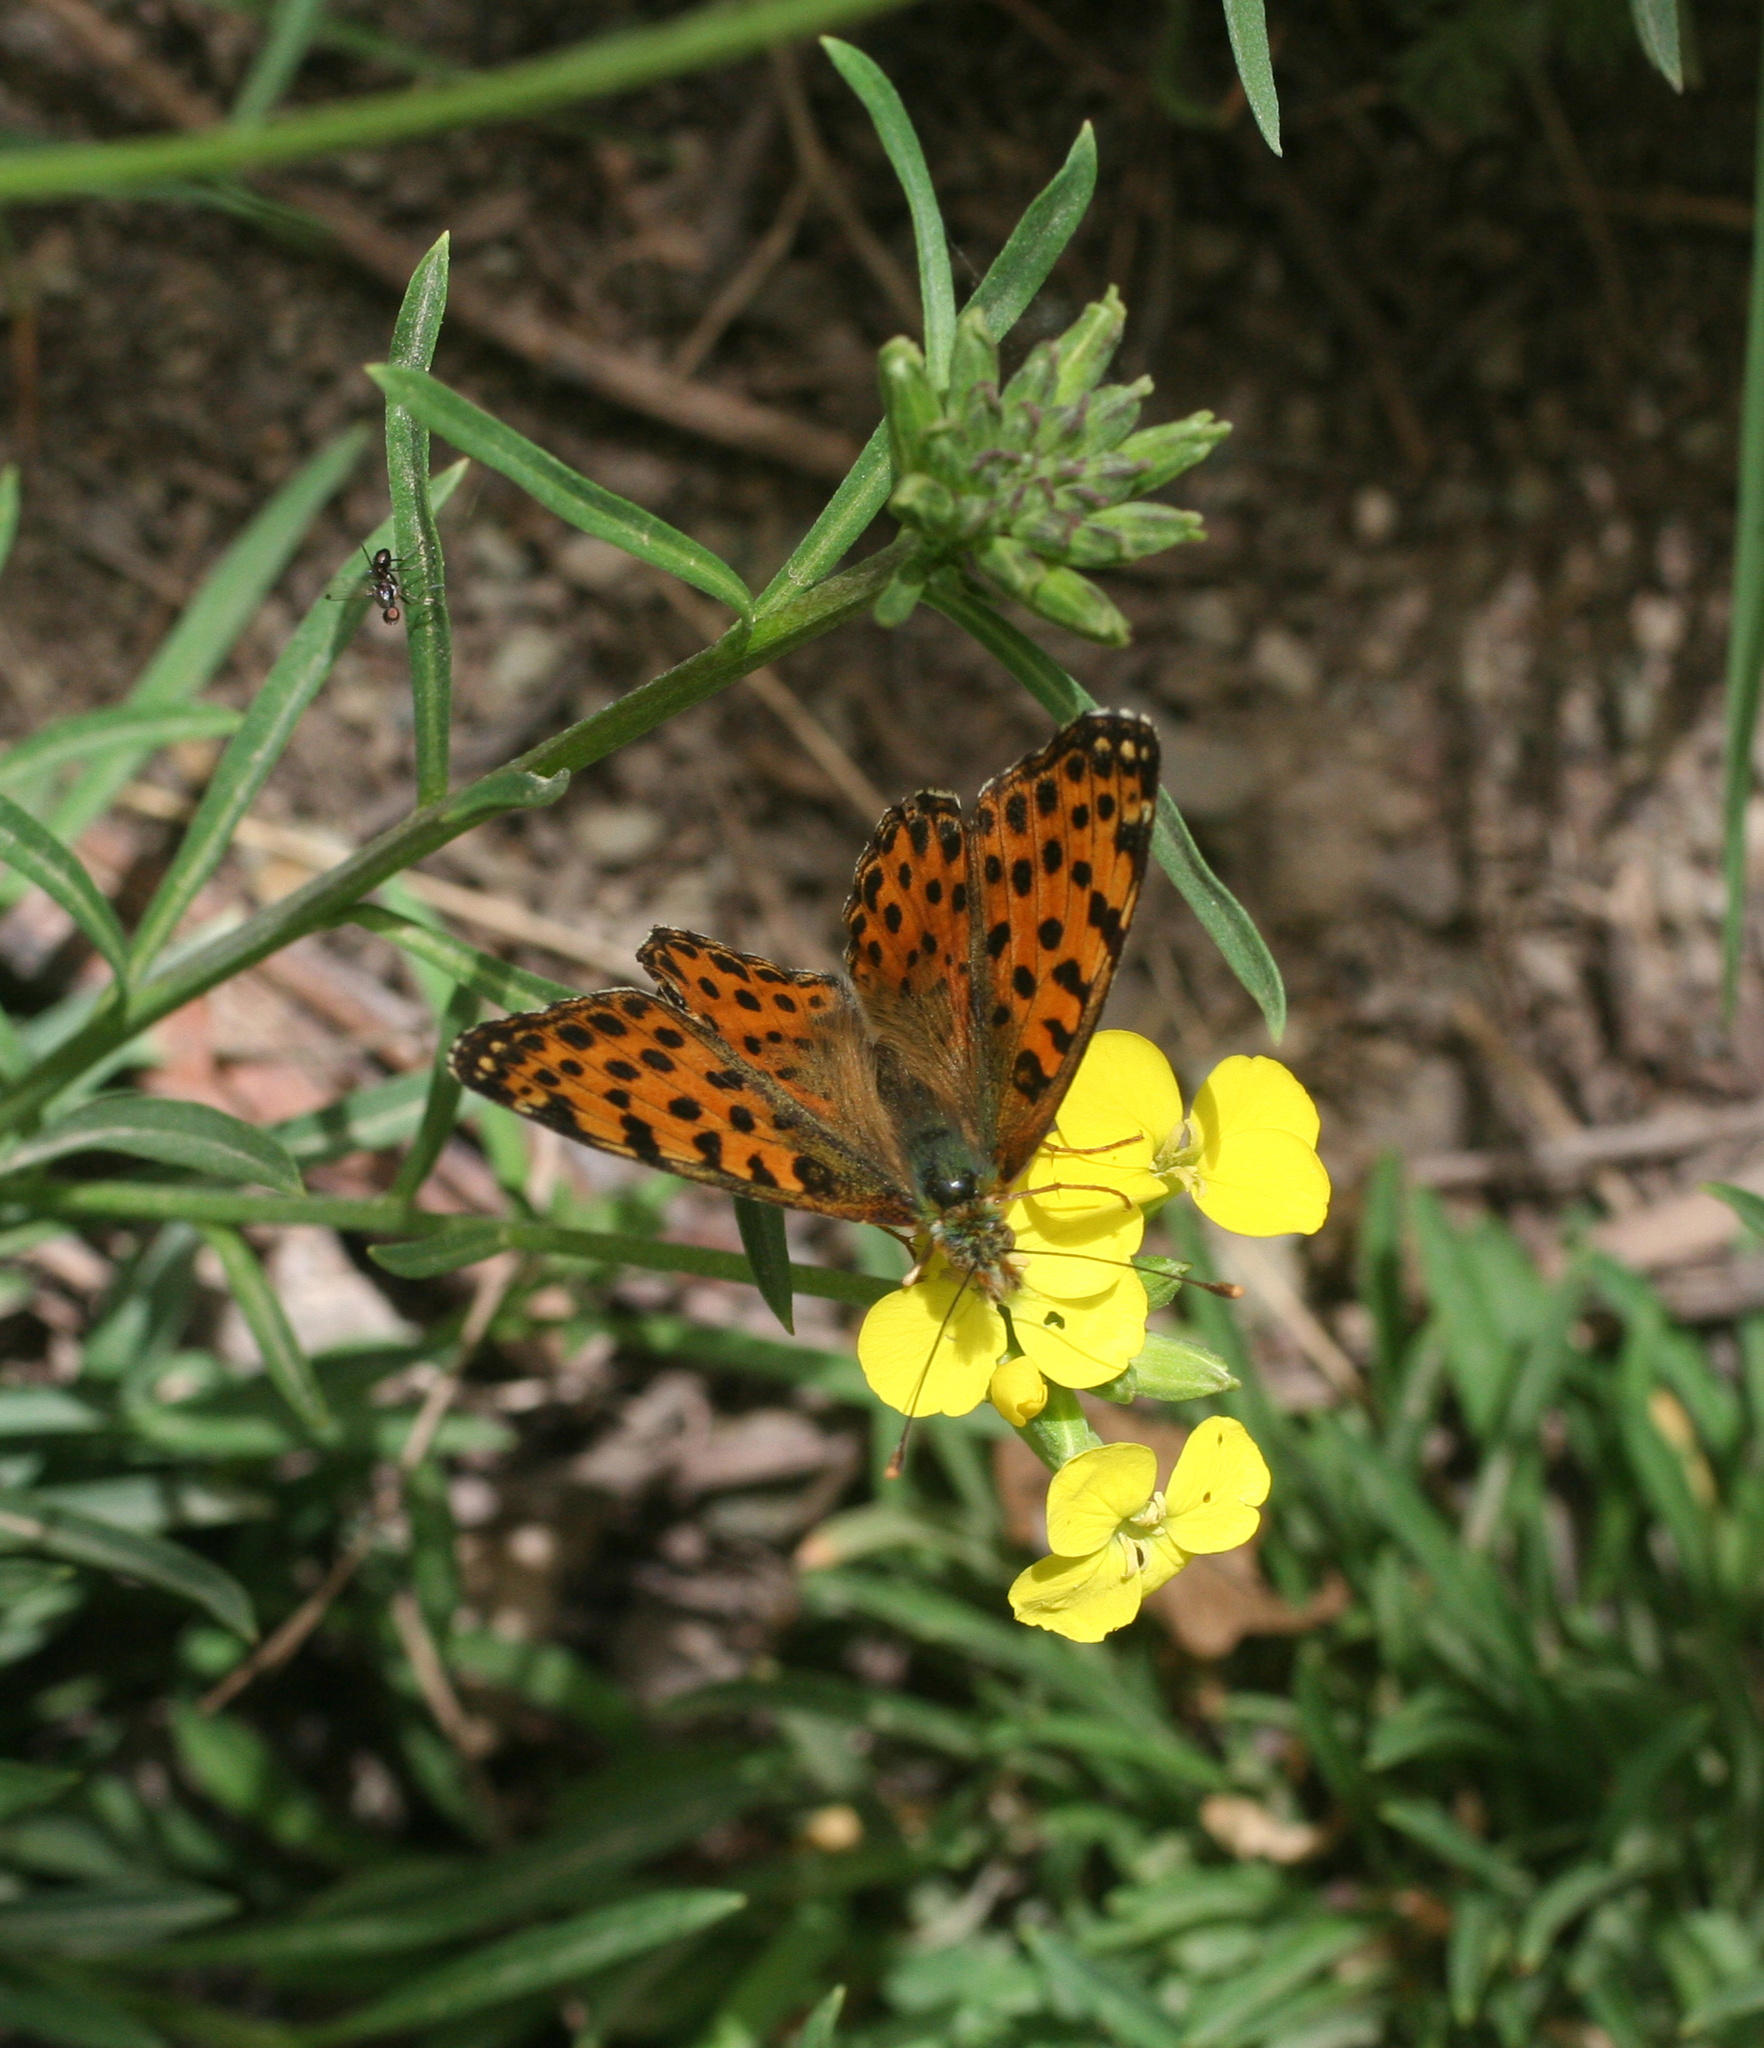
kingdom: Animalia
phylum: Arthropoda
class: Insecta
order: Lepidoptera
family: Nymphalidae
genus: Issoria
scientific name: Issoria lathonia
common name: Queen of spain fritillary
